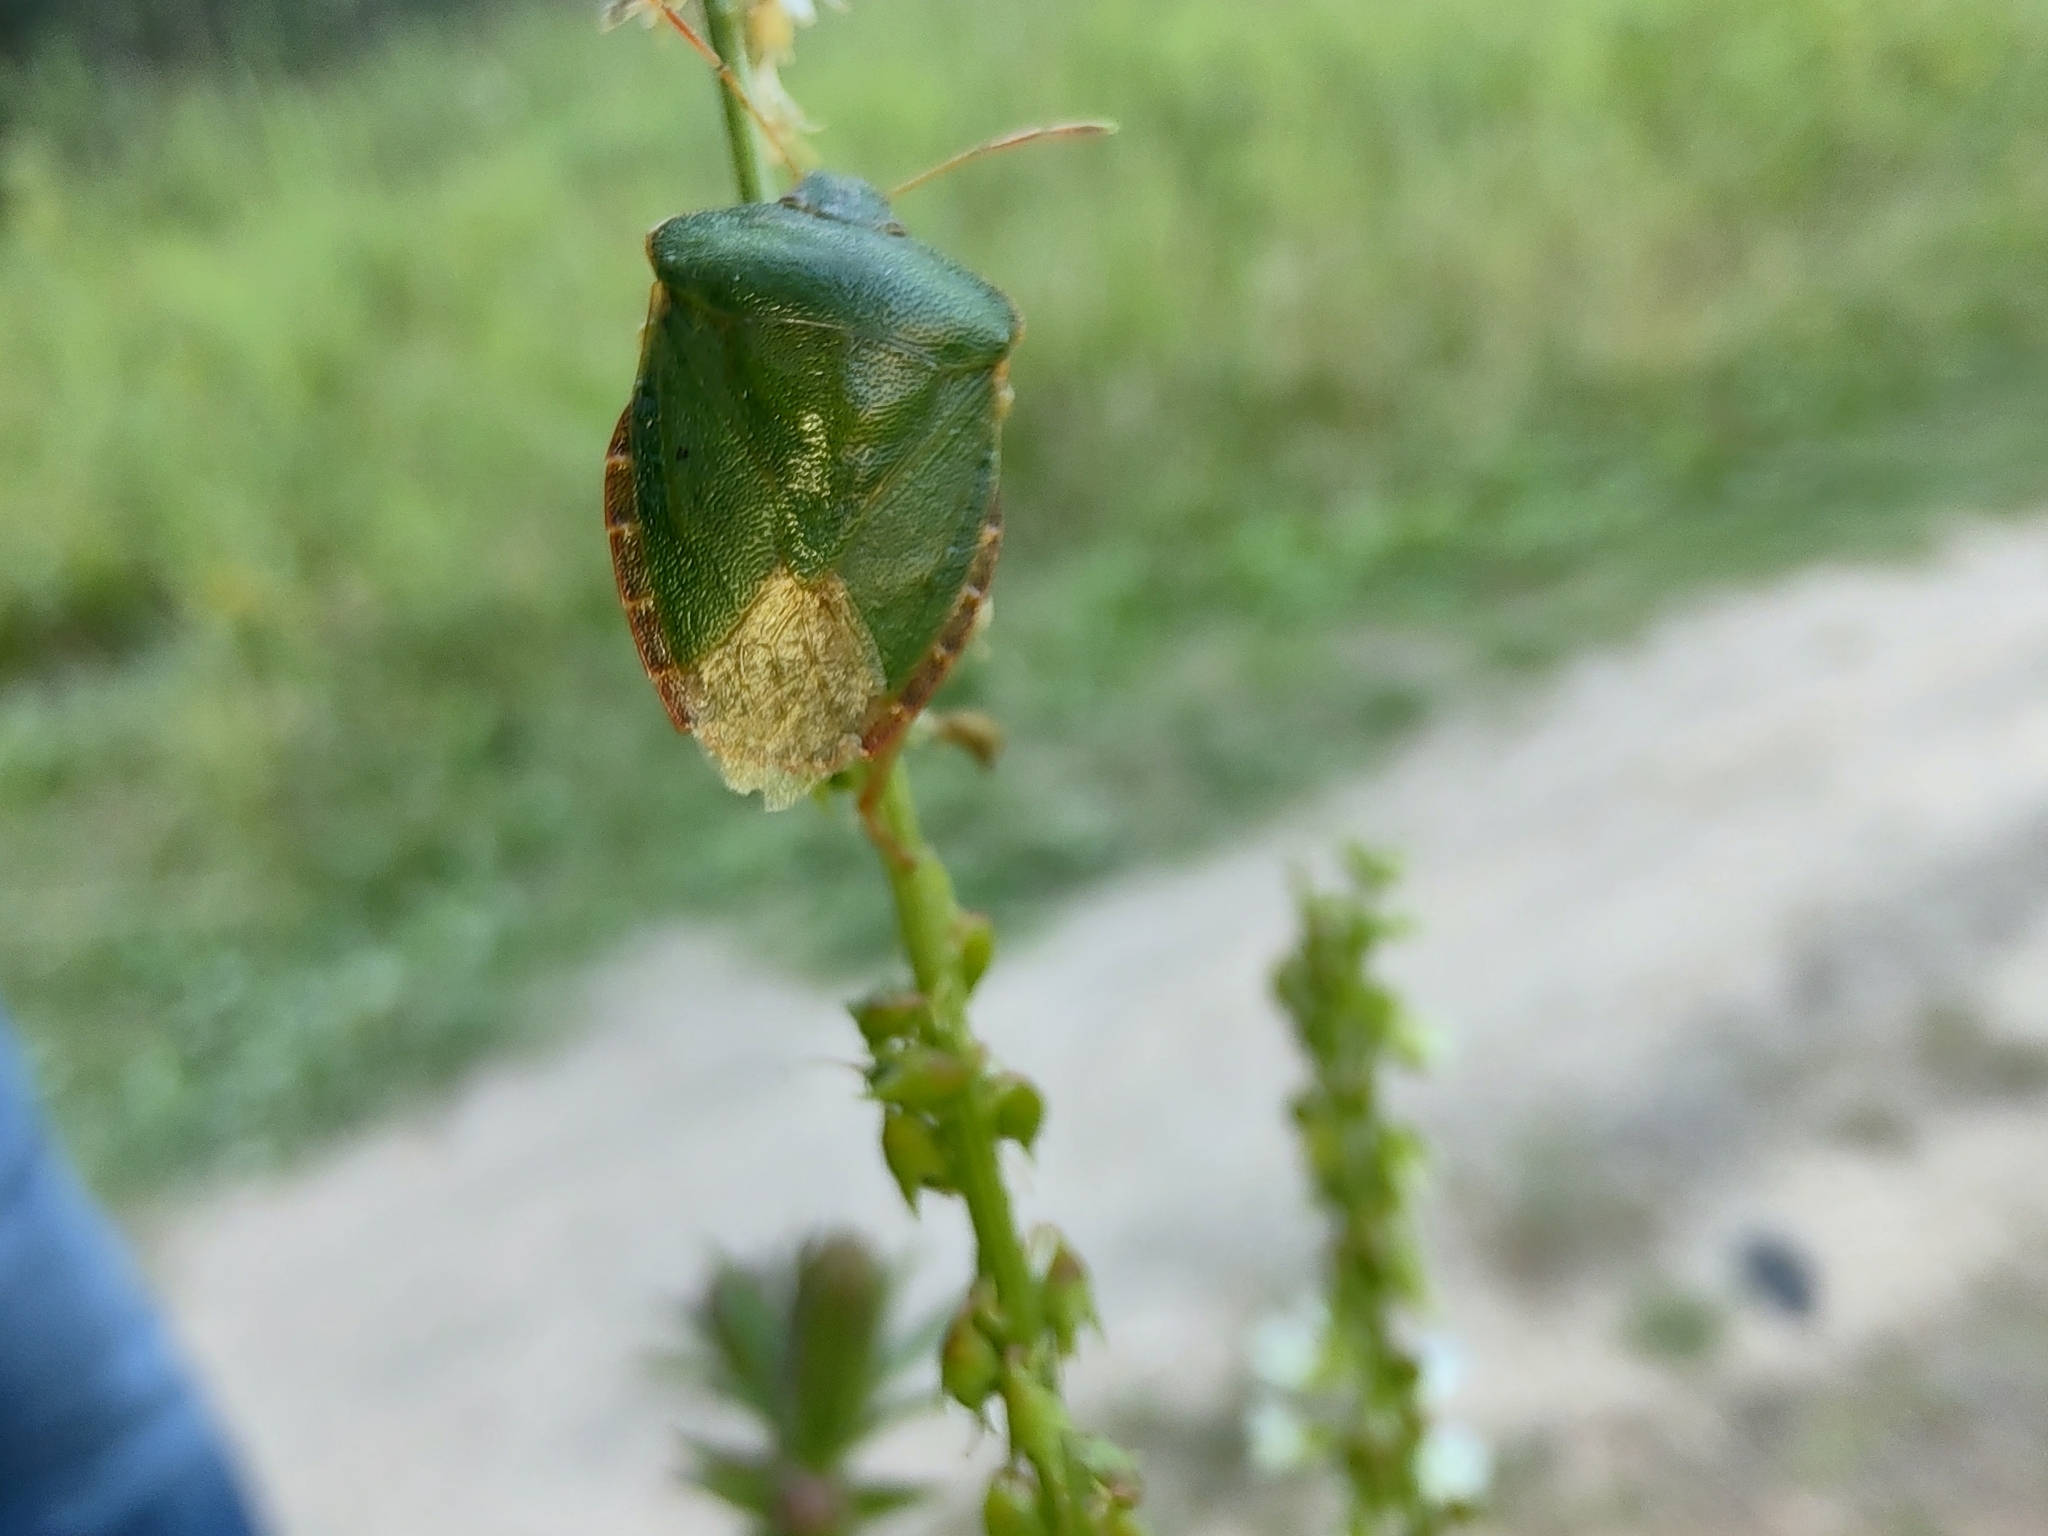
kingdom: Animalia
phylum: Arthropoda
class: Insecta
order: Hemiptera
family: Pentatomidae
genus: Palomena
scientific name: Palomena prasina
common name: Green shieldbug
